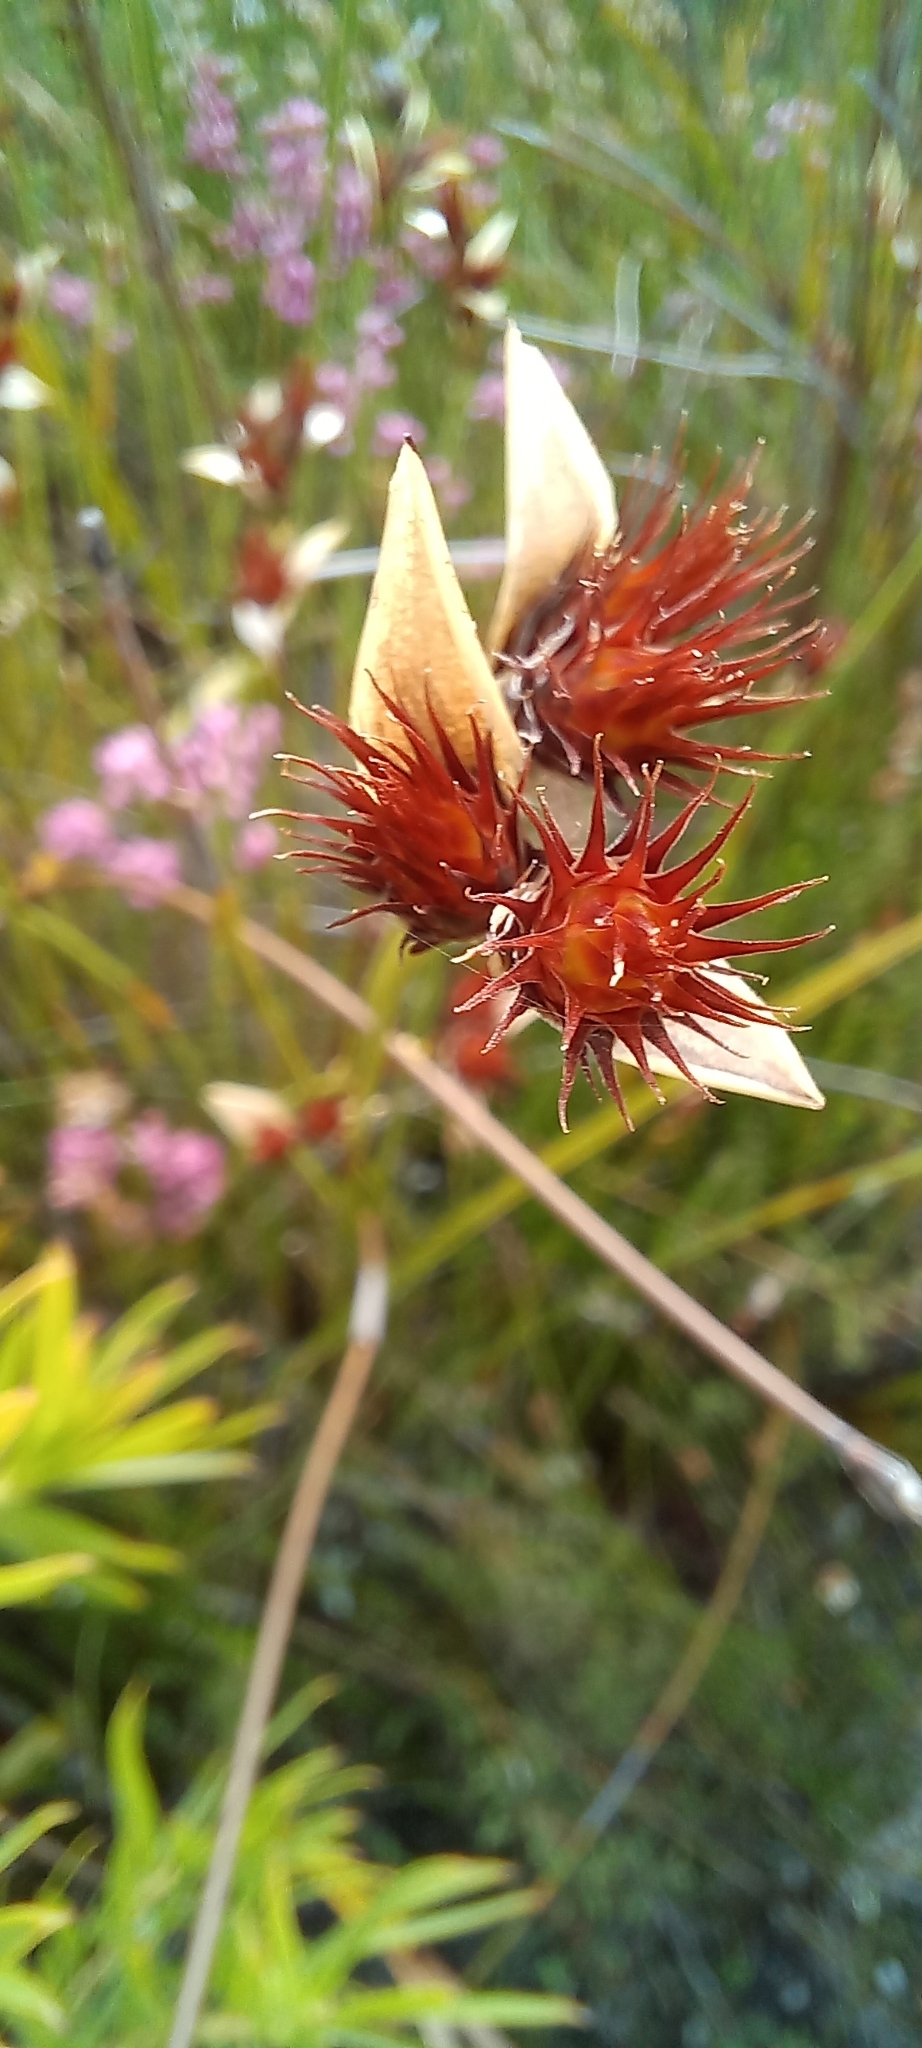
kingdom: Plantae
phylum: Tracheophyta
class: Liliopsida
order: Poales
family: Restionaceae
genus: Hypodiscus
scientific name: Hypodiscus aristatus
